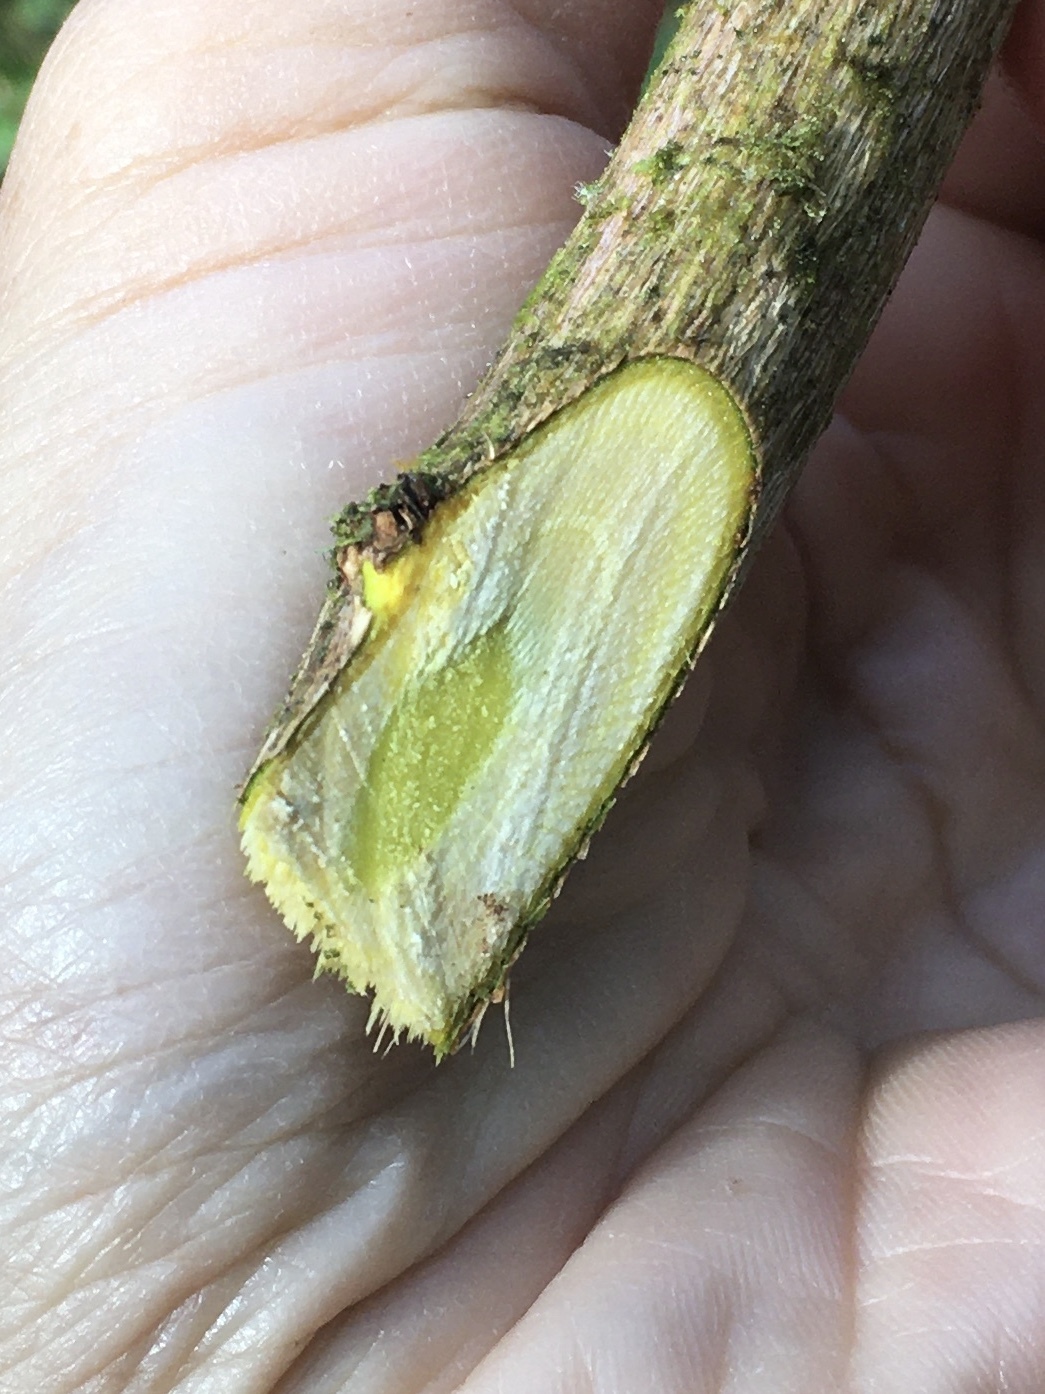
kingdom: Plantae
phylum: Tracheophyta
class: Magnoliopsida
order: Ranunculales
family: Berberidaceae
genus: Berberis
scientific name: Berberis laurina
